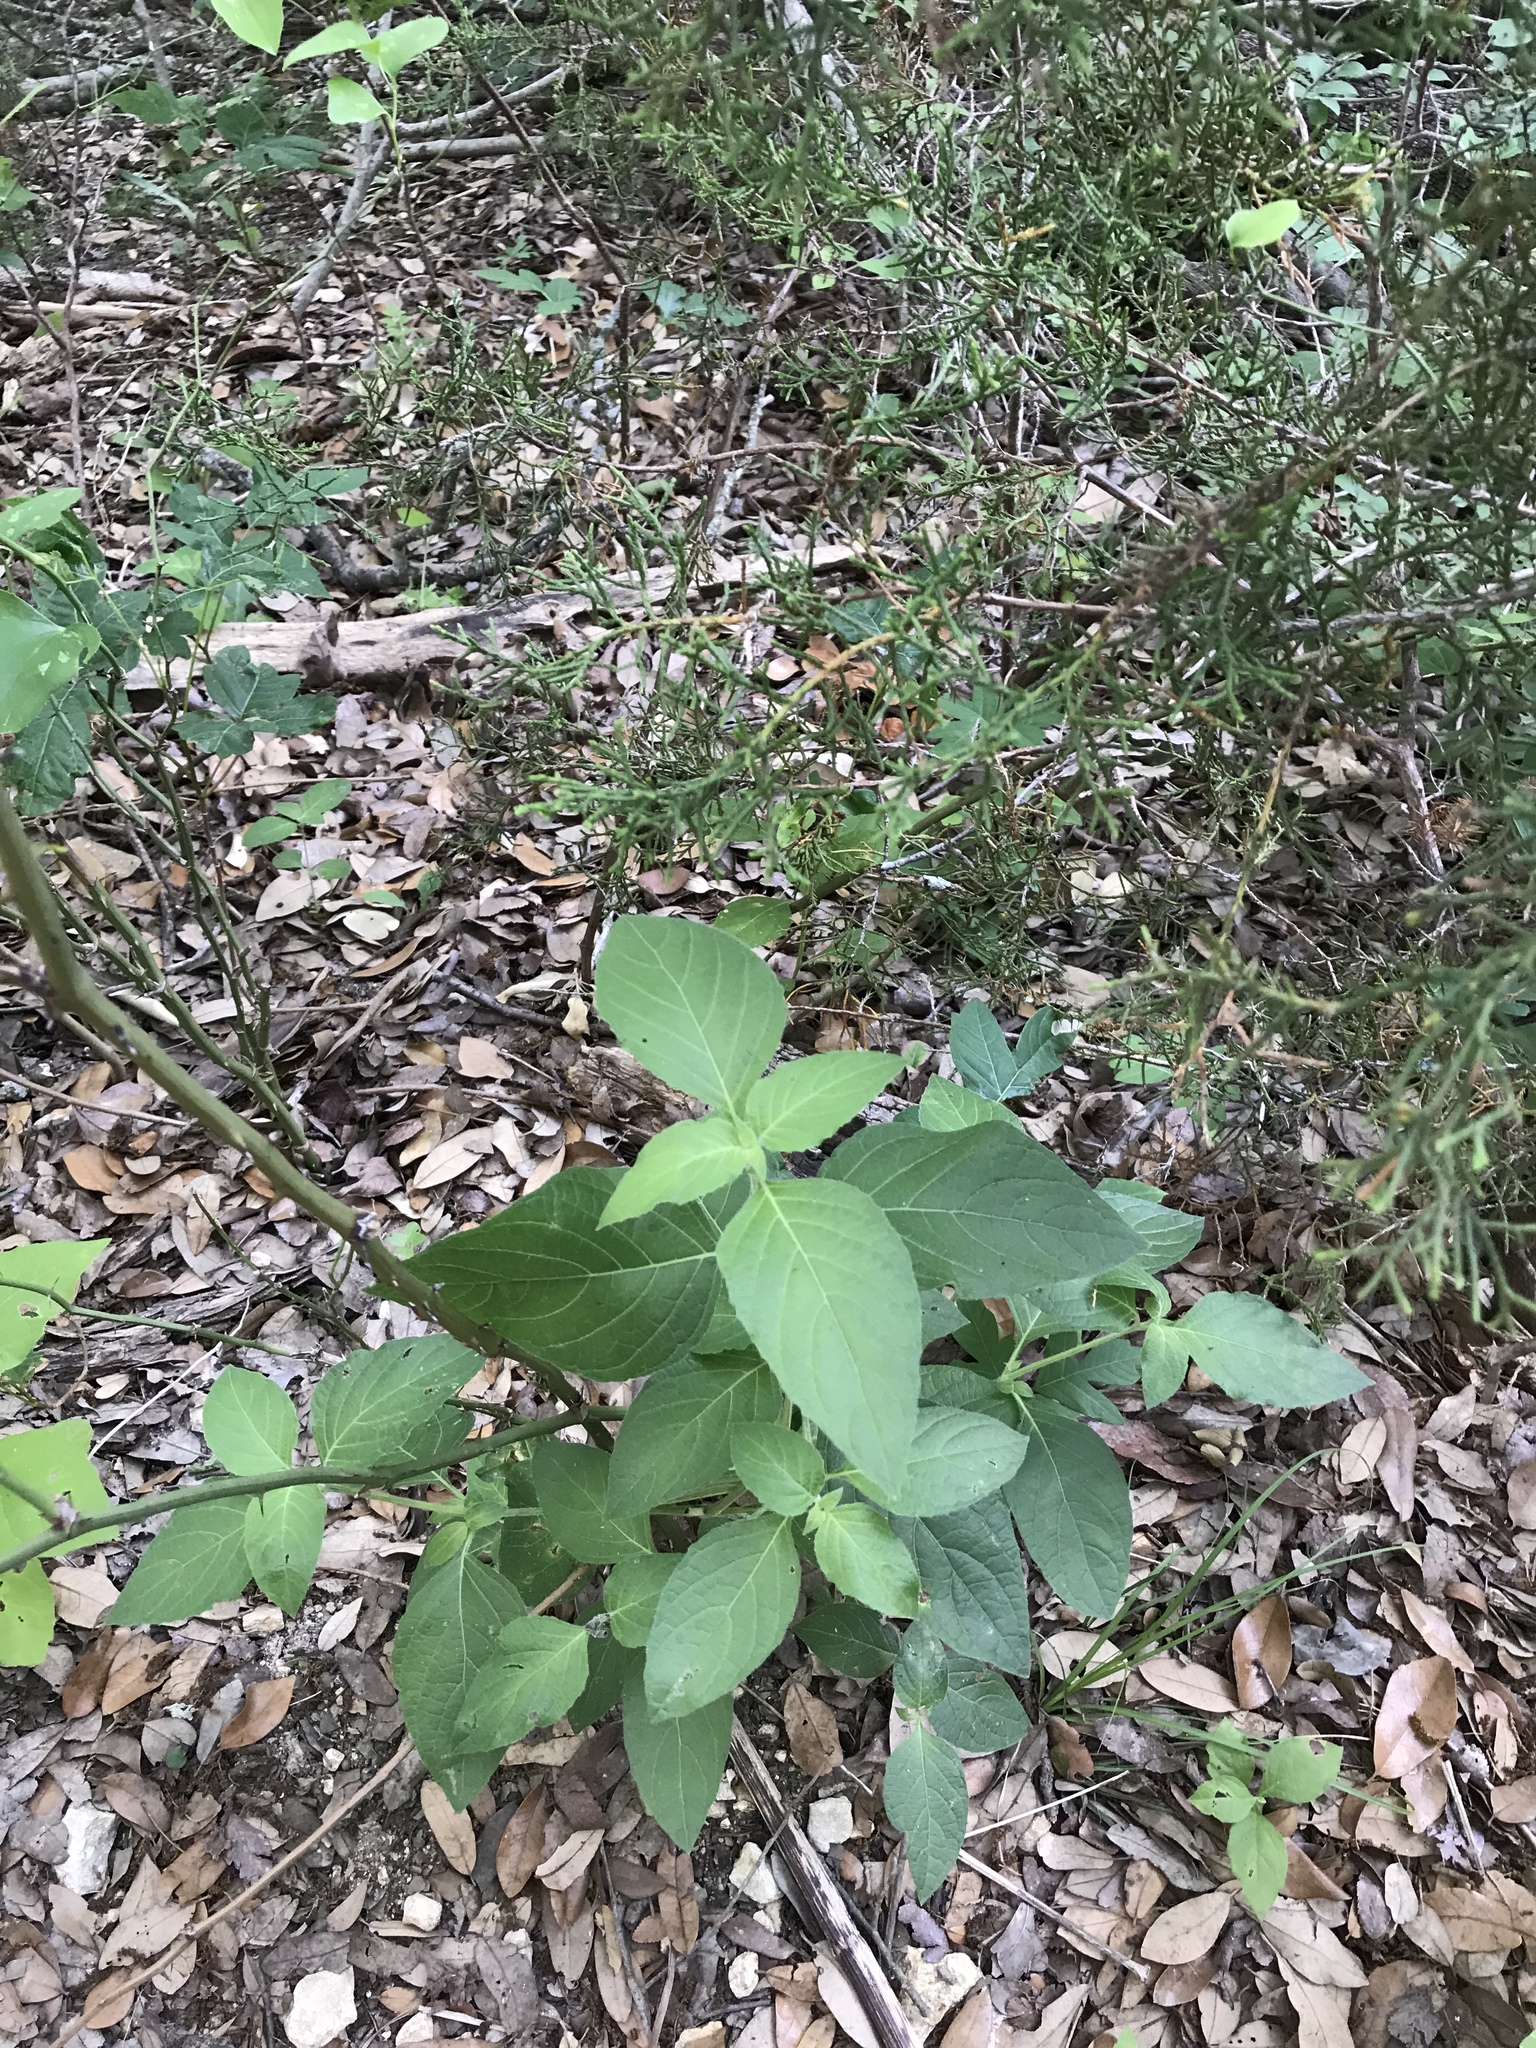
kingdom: Plantae
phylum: Tracheophyta
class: Magnoliopsida
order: Lamiales
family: Acanthaceae
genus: Ruellia
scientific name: Ruellia drummondiana
